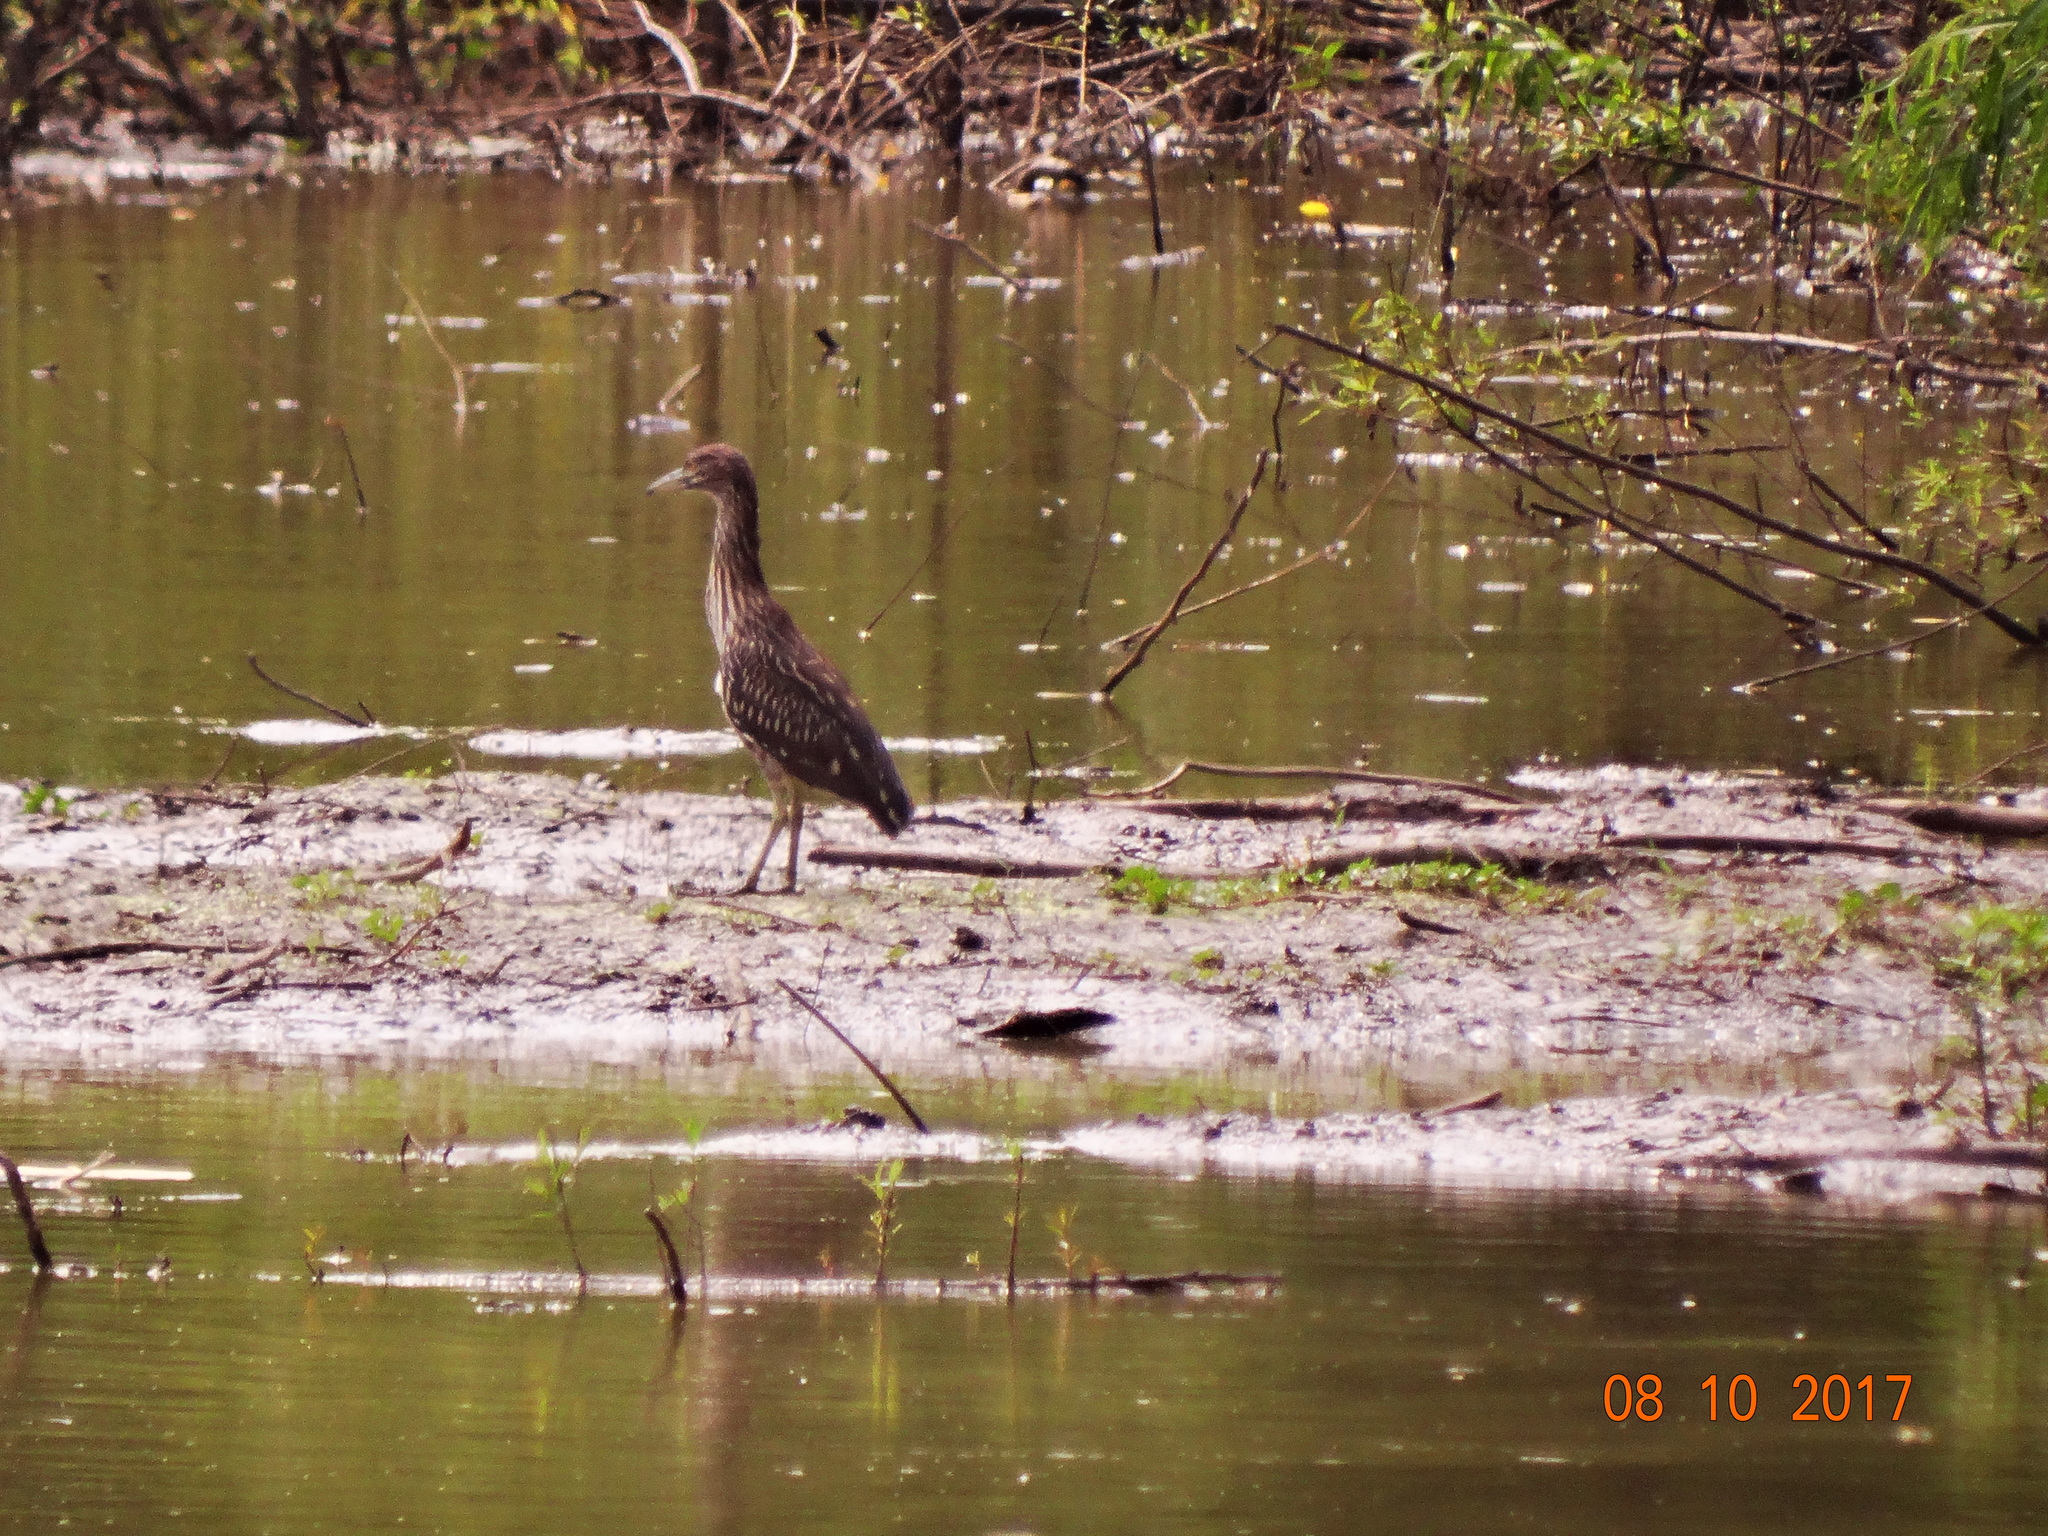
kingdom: Animalia
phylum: Chordata
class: Aves
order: Pelecaniformes
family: Ardeidae
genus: Nycticorax
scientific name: Nycticorax nycticorax
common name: Black-crowned night heron
